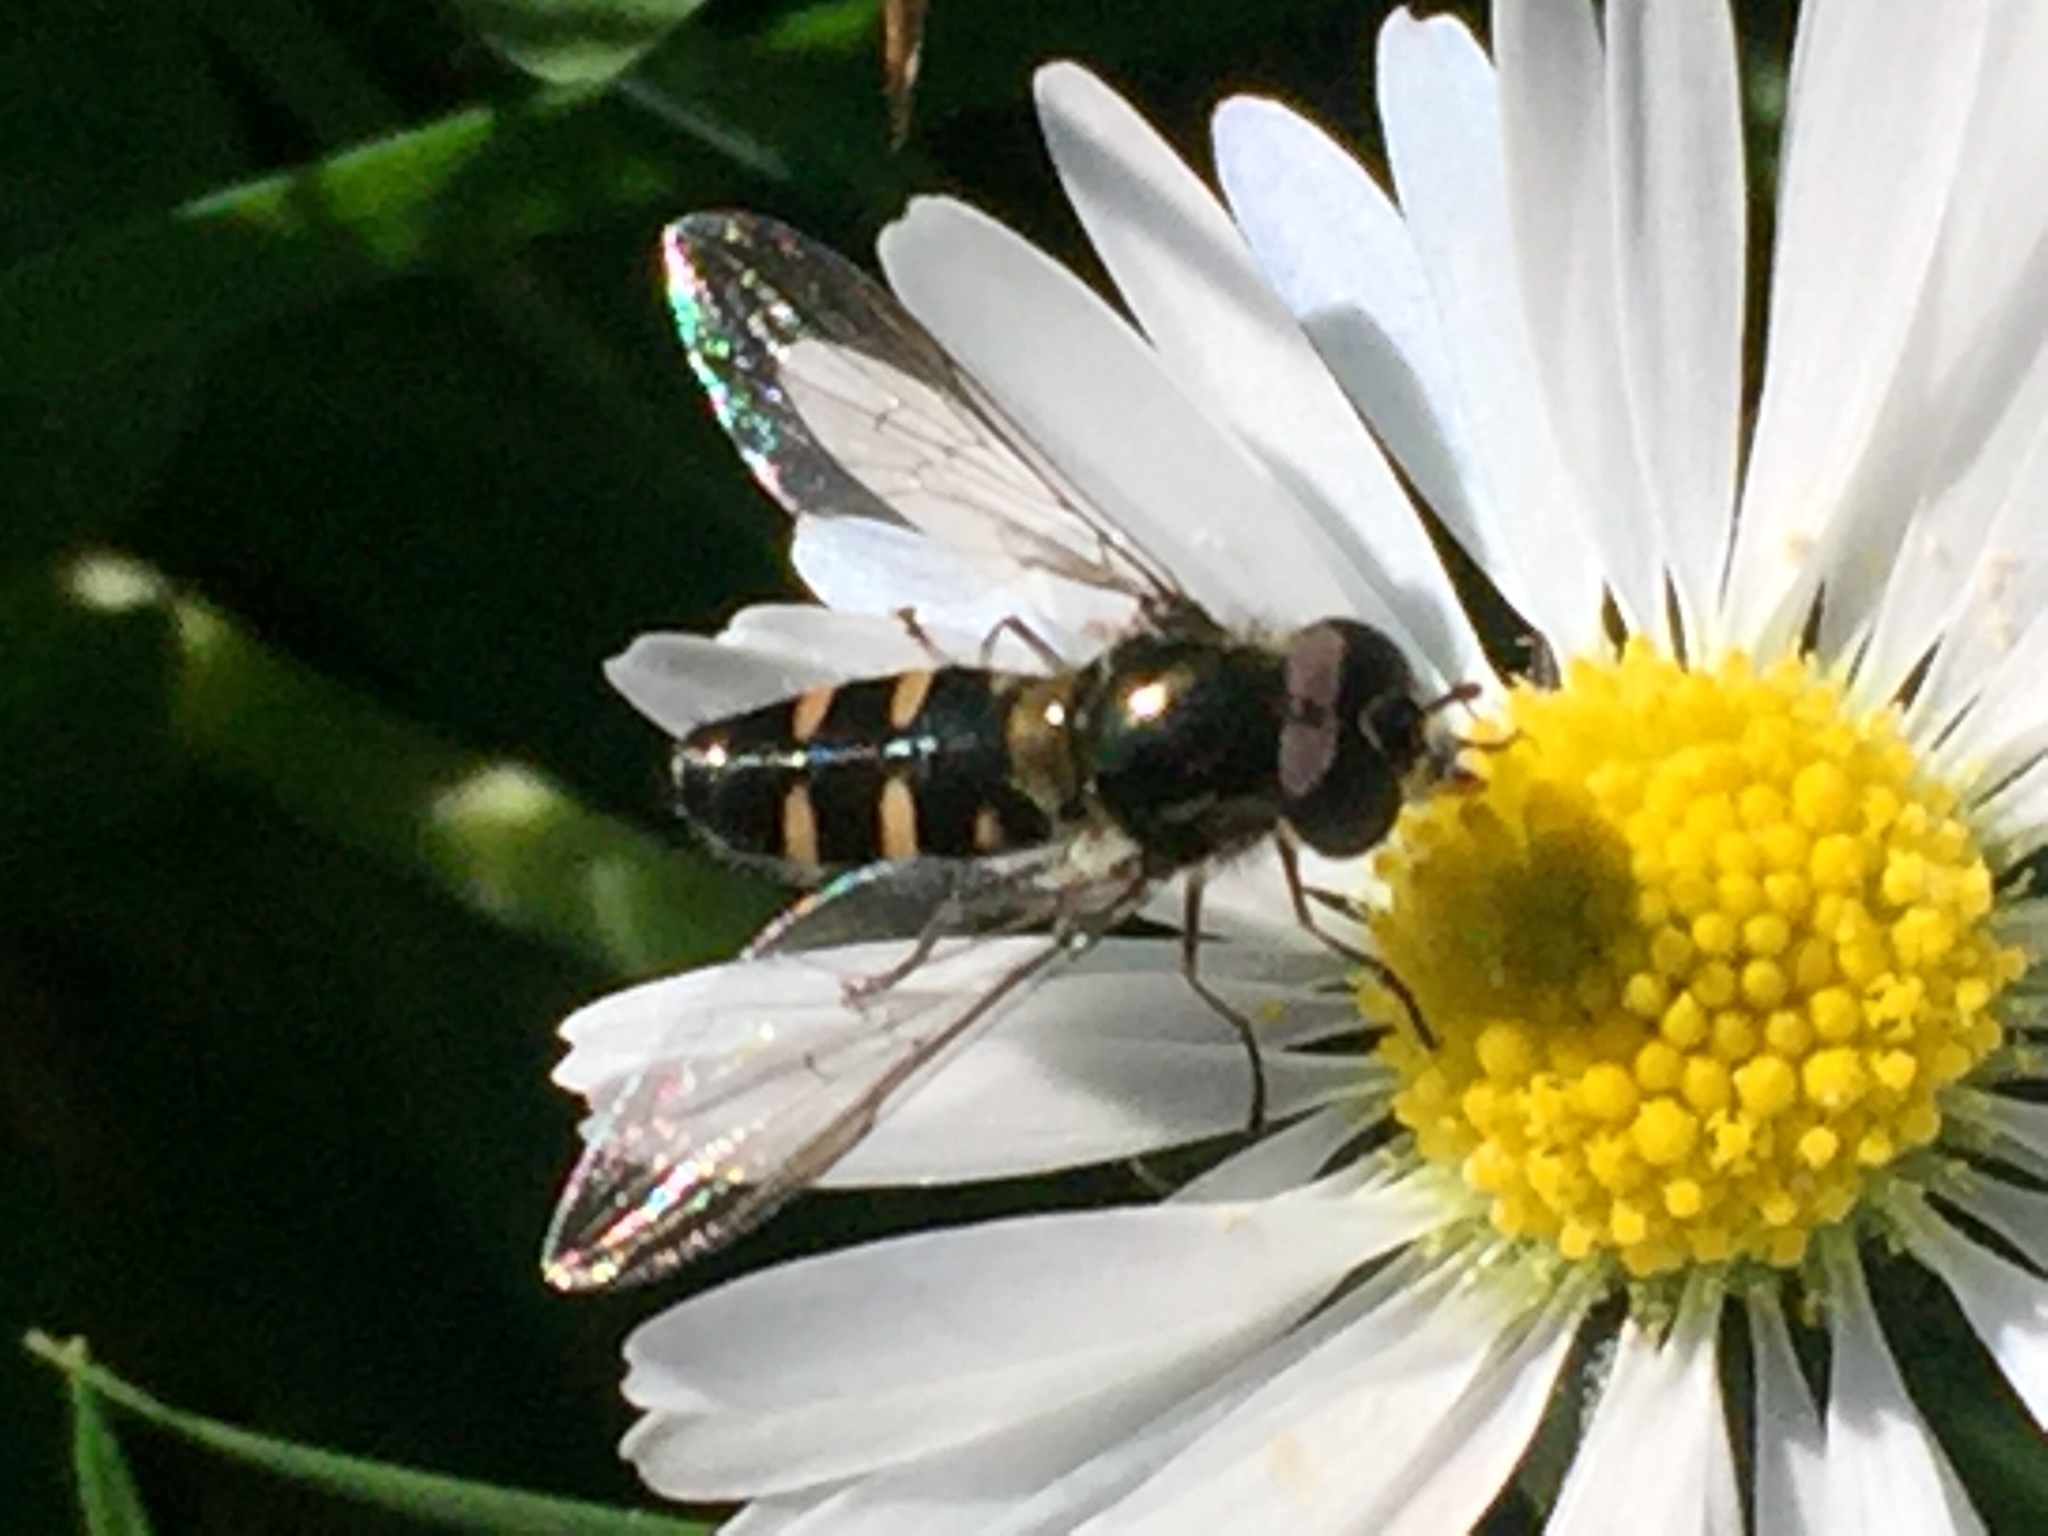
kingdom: Animalia
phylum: Arthropoda
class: Insecta
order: Diptera
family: Syrphidae
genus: Melangyna
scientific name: Melangyna novaezelandiae
